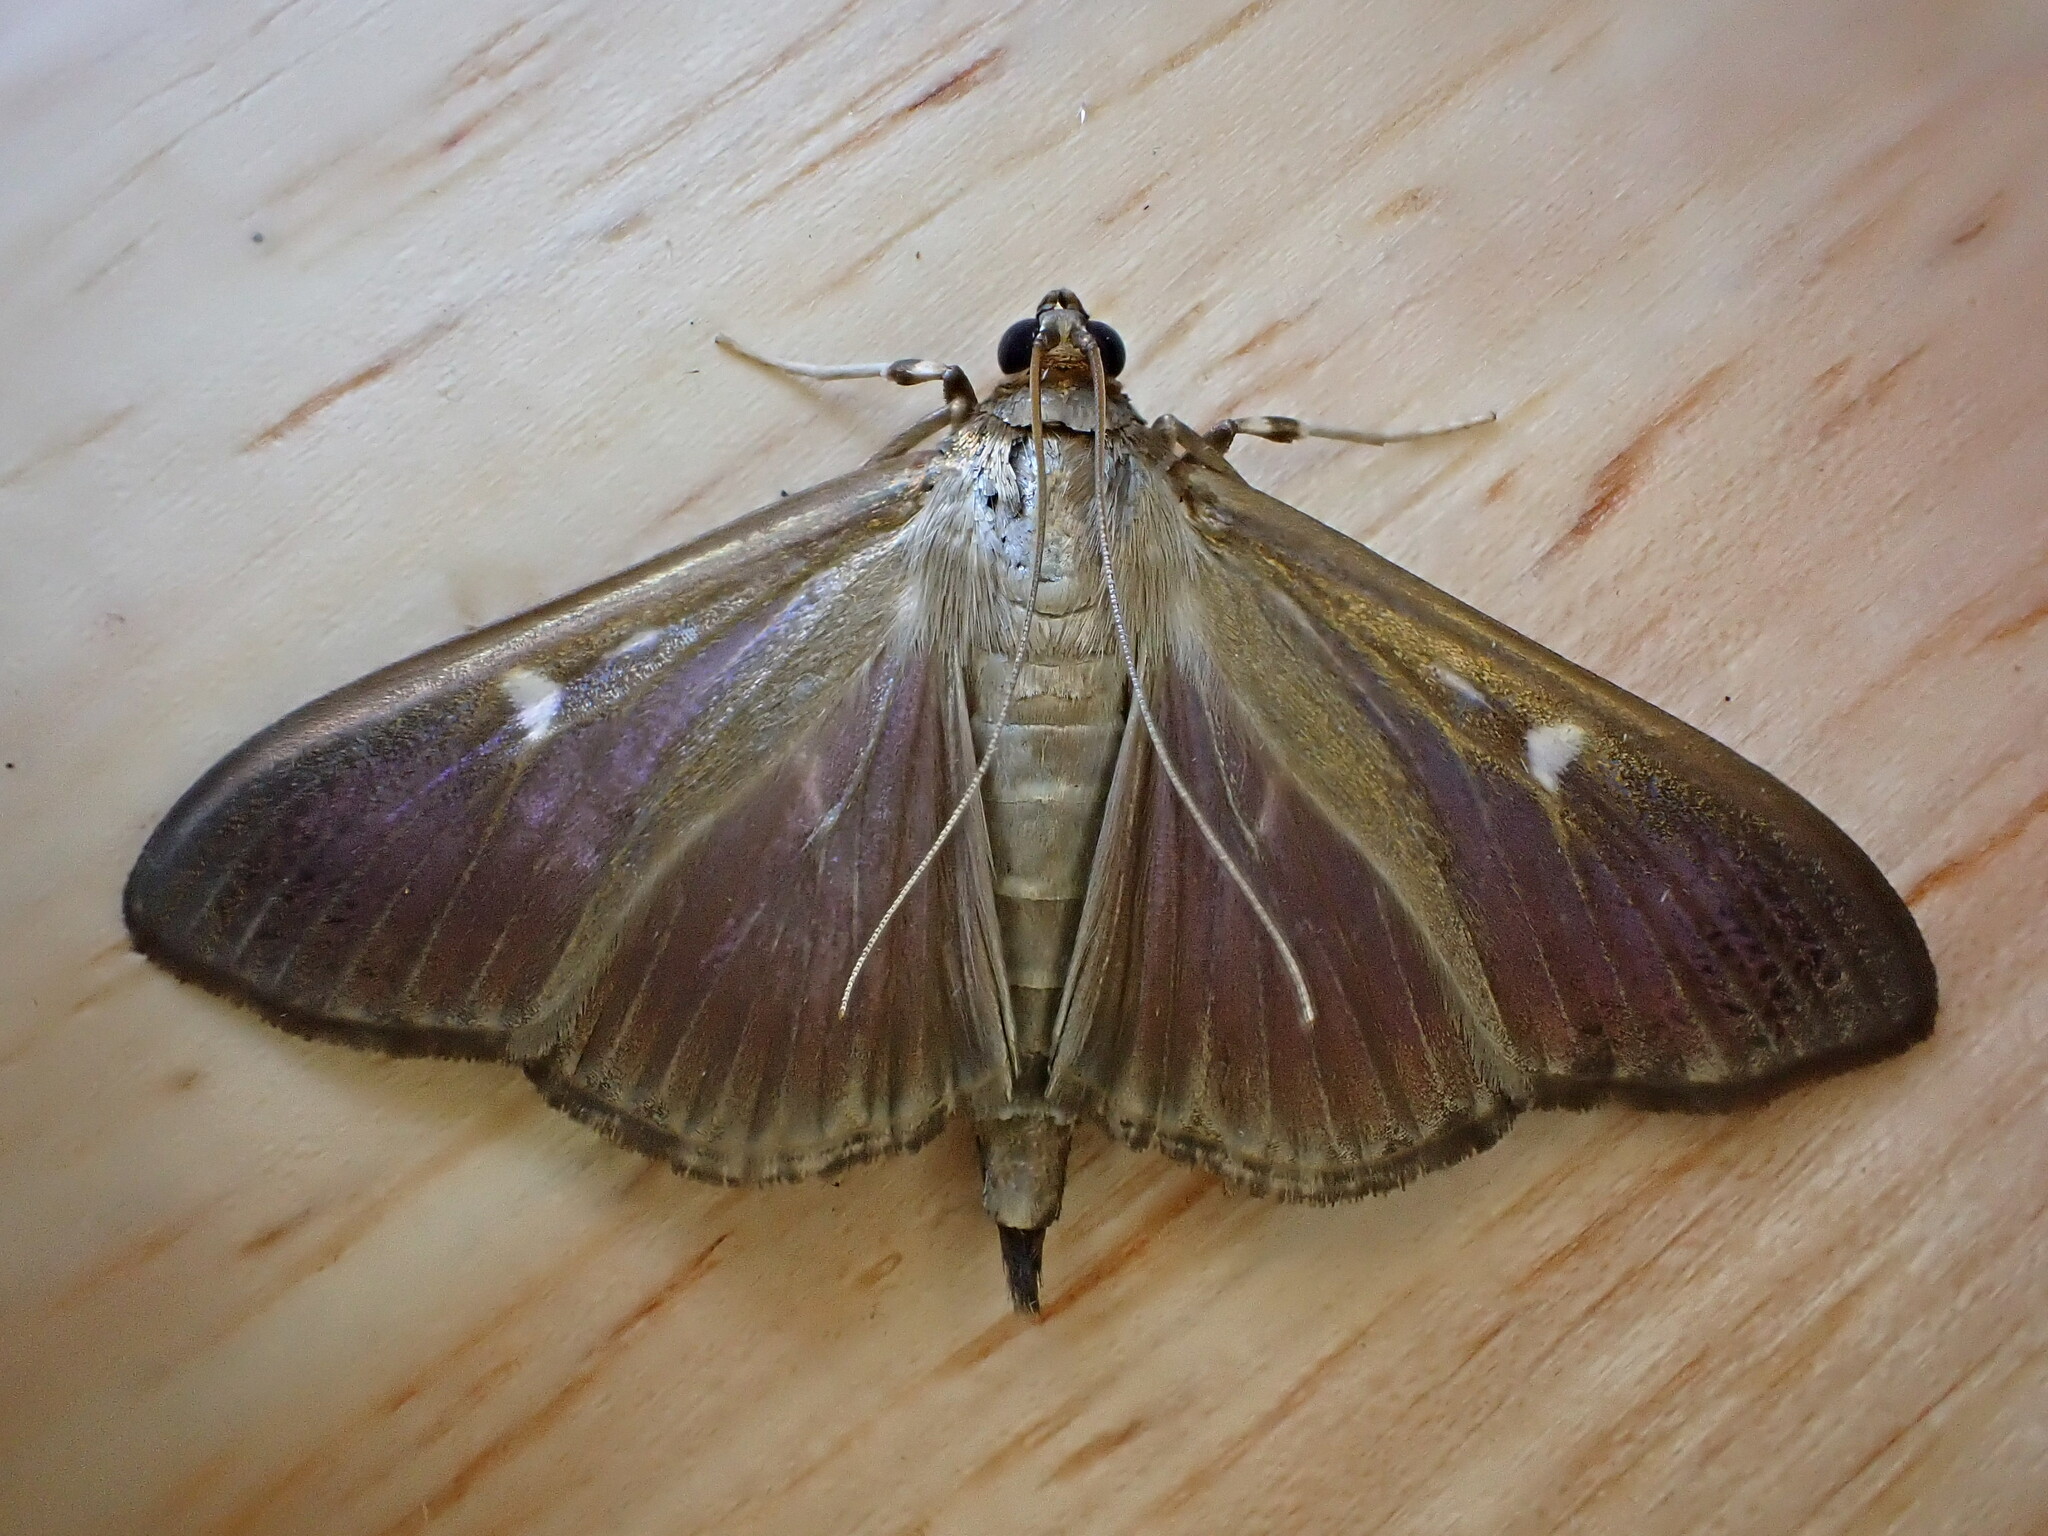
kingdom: Animalia
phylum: Arthropoda
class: Insecta
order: Lepidoptera
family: Crambidae
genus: Cydalima
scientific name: Cydalima perspectalis
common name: Box tree moth
